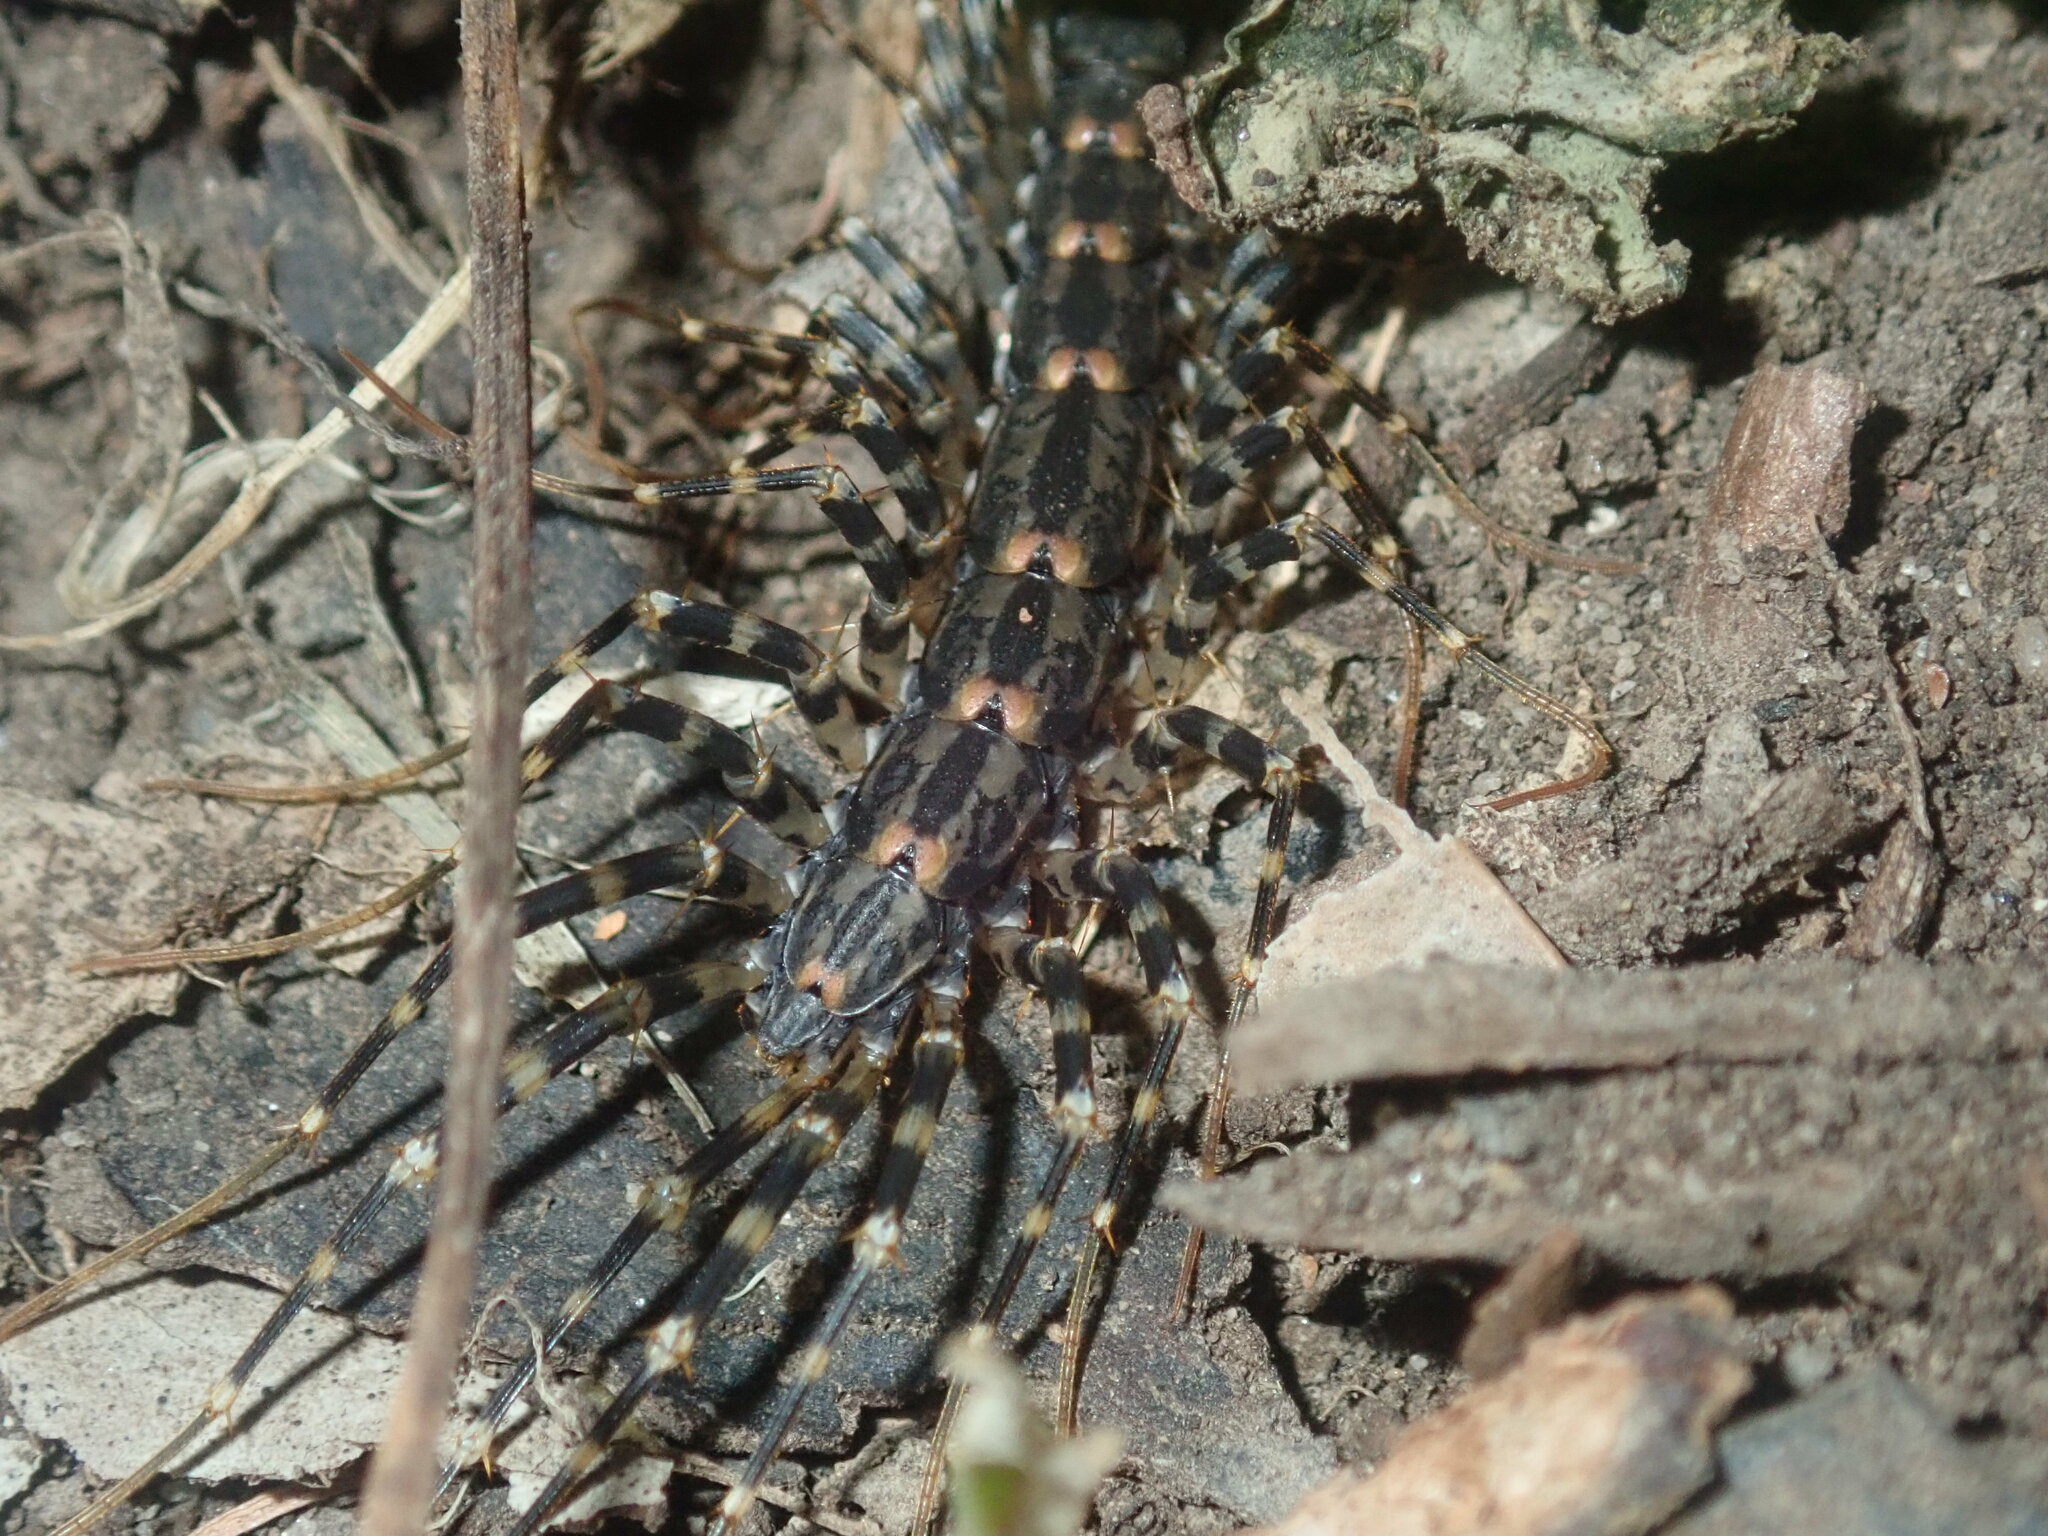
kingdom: Animalia
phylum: Arthropoda
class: Chilopoda
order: Scutigeromorpha
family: Scutigeridae
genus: Allothereua
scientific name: Allothereua maculata
